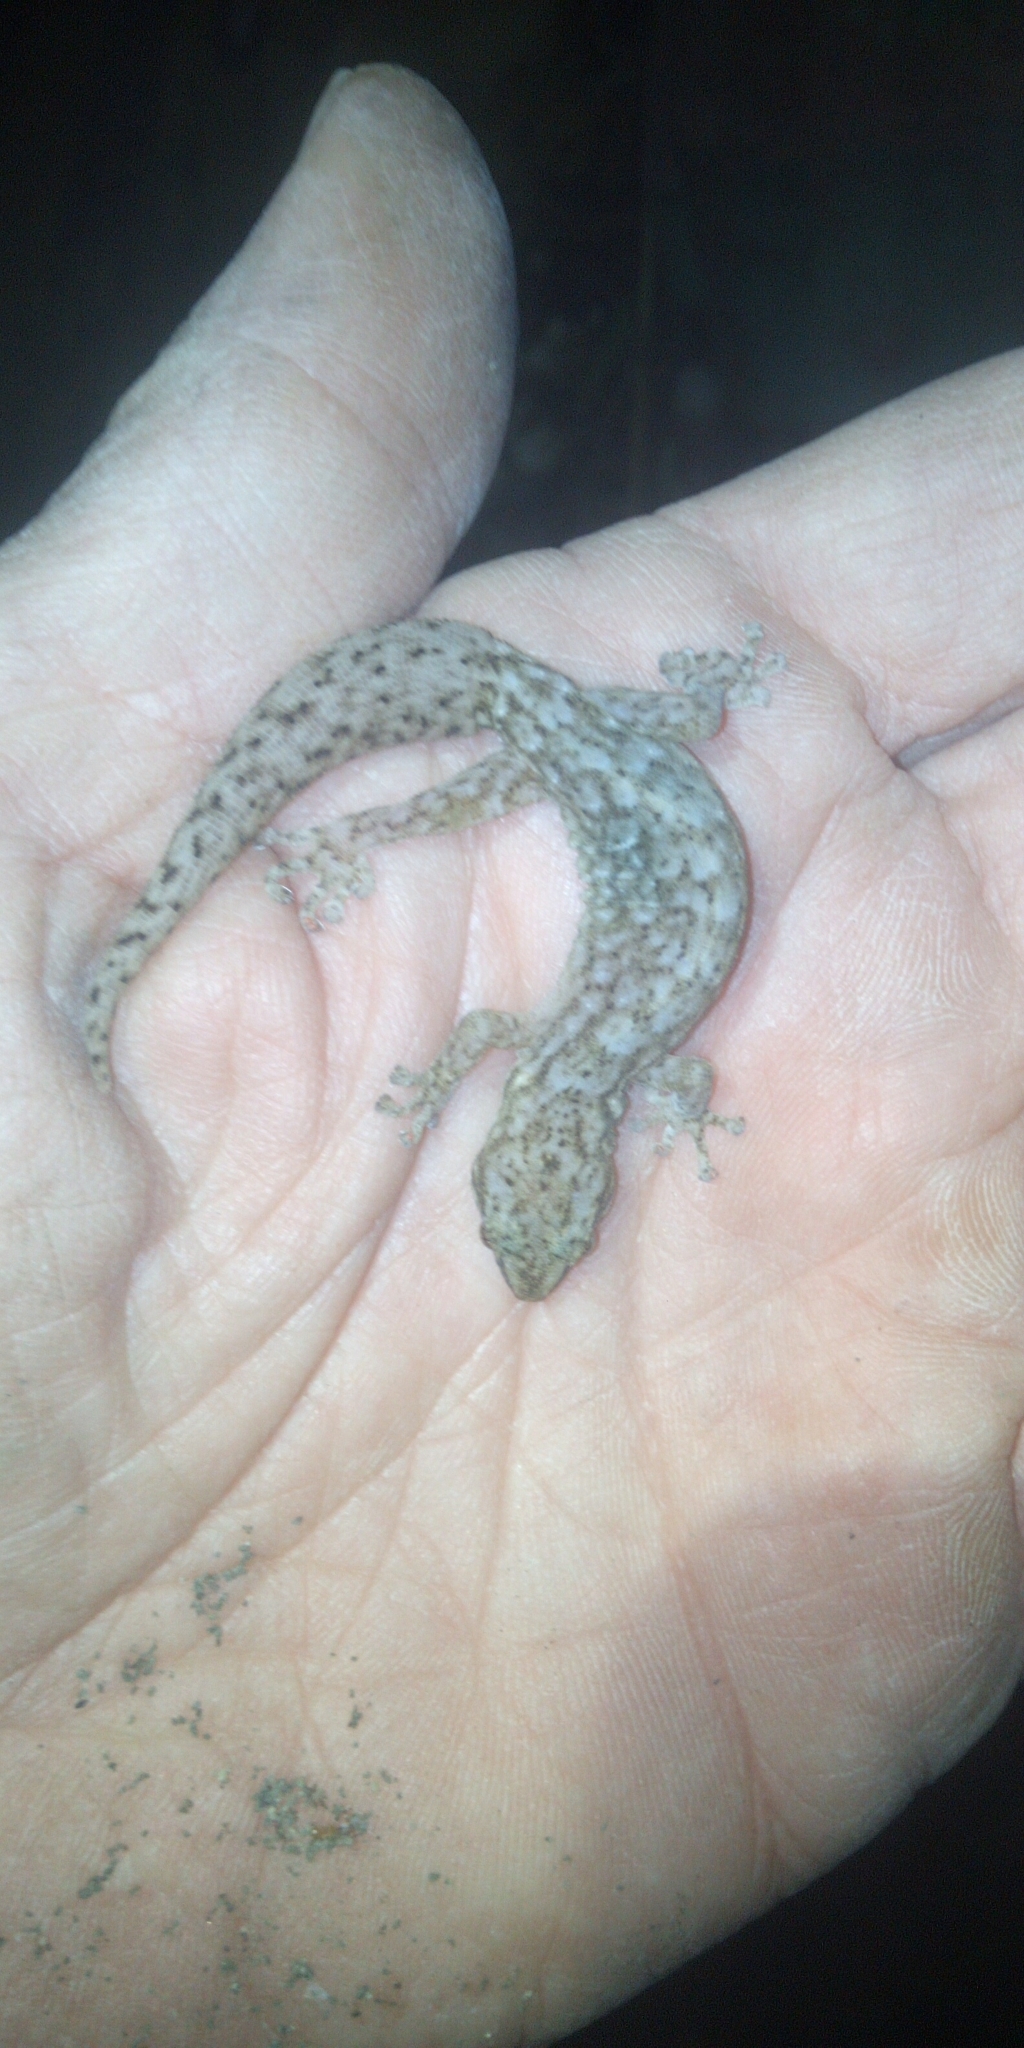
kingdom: Animalia
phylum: Chordata
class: Squamata
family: Gekkonidae
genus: Afrogecko
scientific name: Afrogecko porphyreus
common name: Marbled leaf-toed gecko
